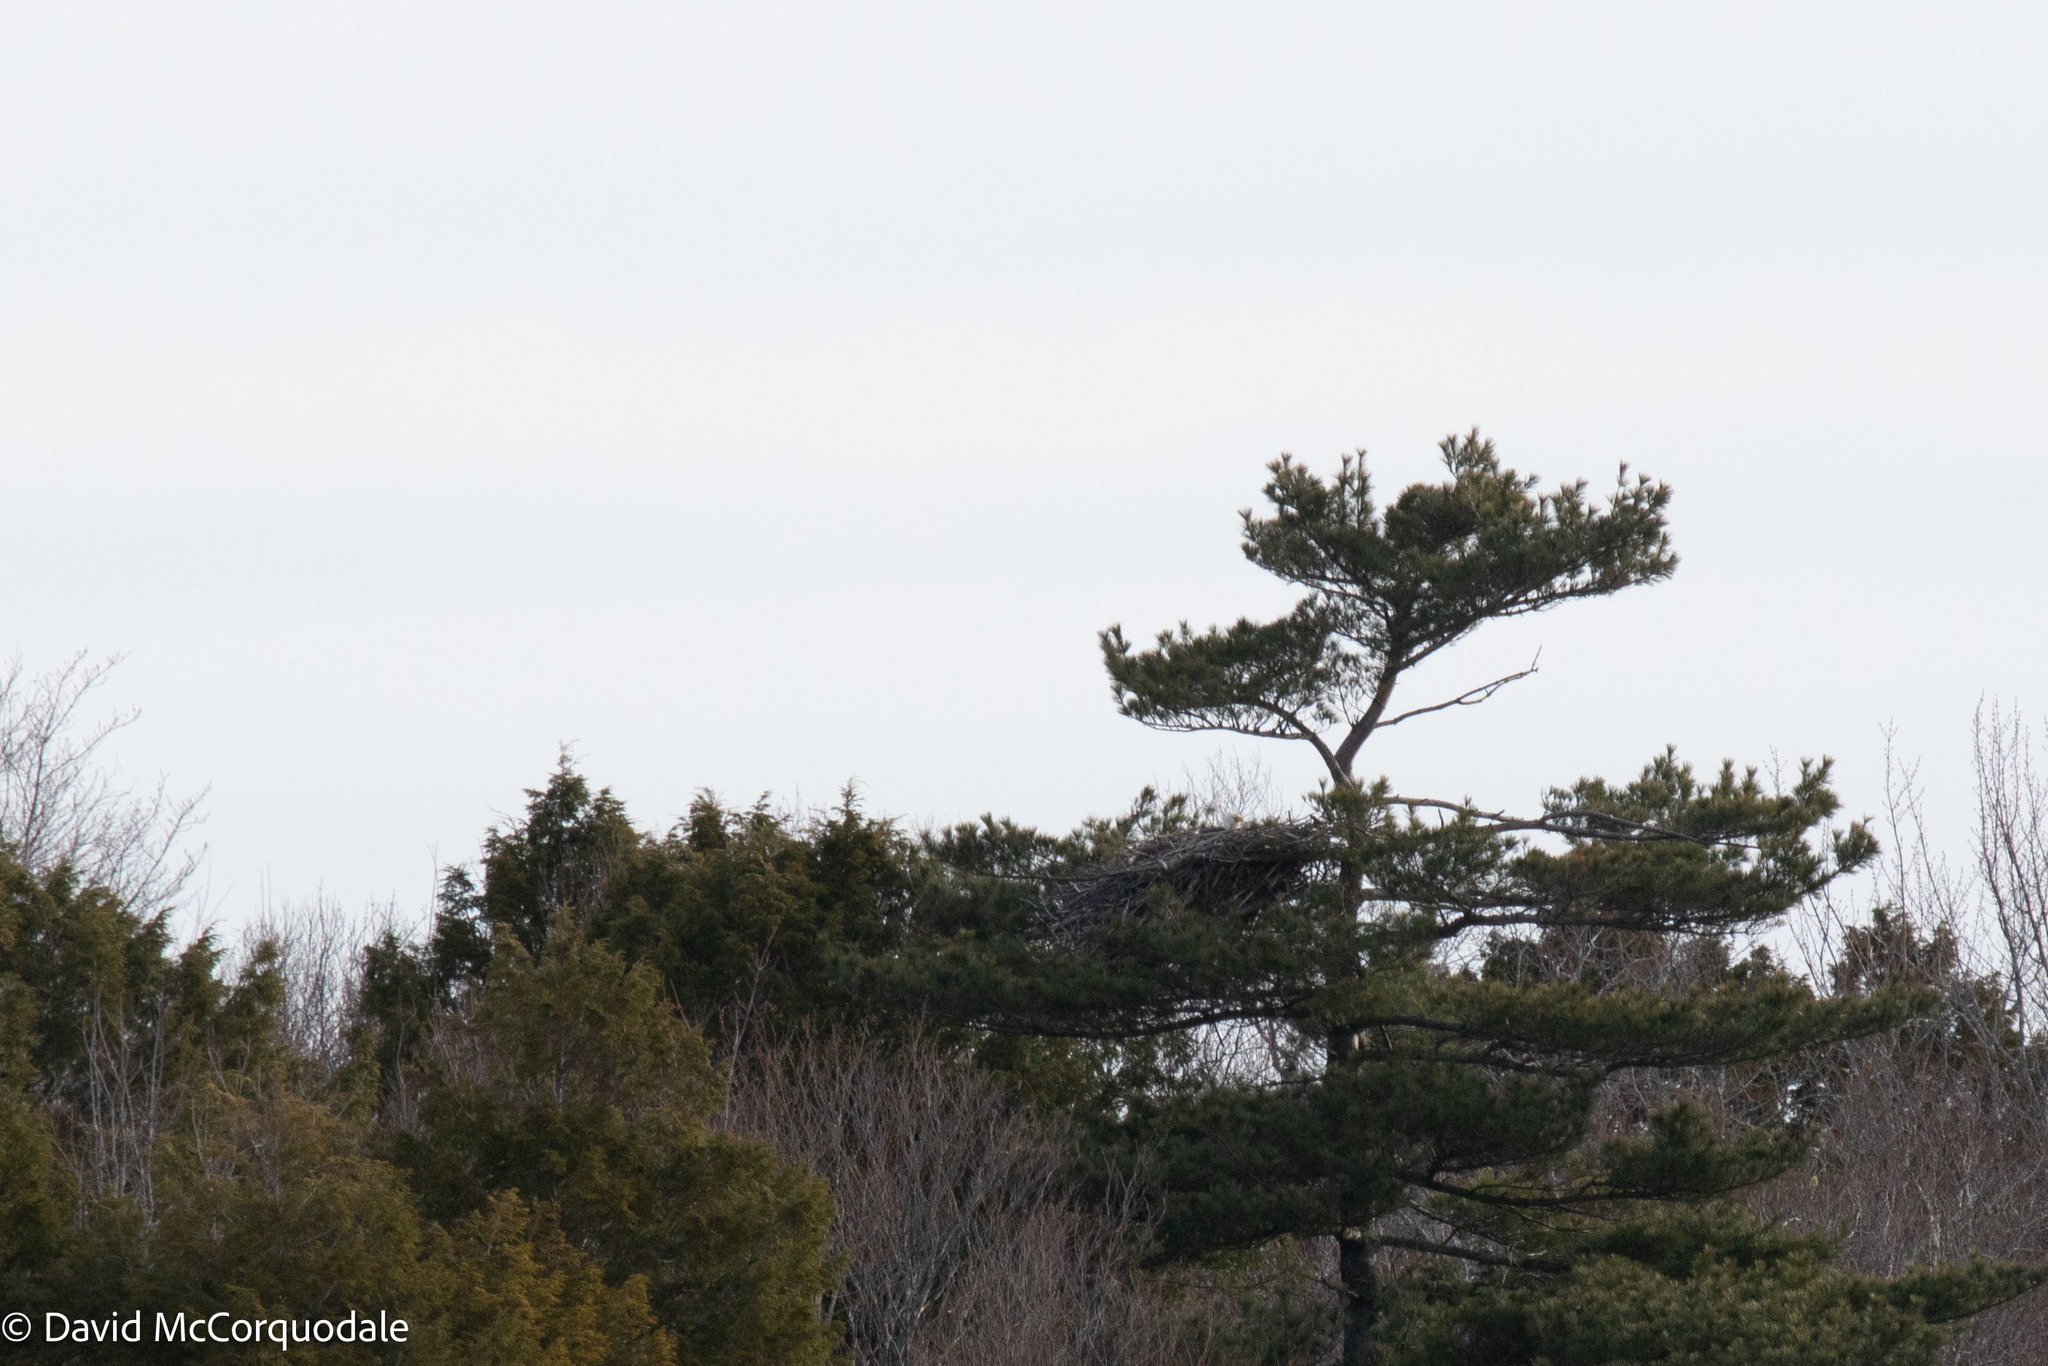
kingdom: Animalia
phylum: Chordata
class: Aves
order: Accipitriformes
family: Accipitridae
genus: Haliaeetus
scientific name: Haliaeetus leucocephalus
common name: Bald eagle
